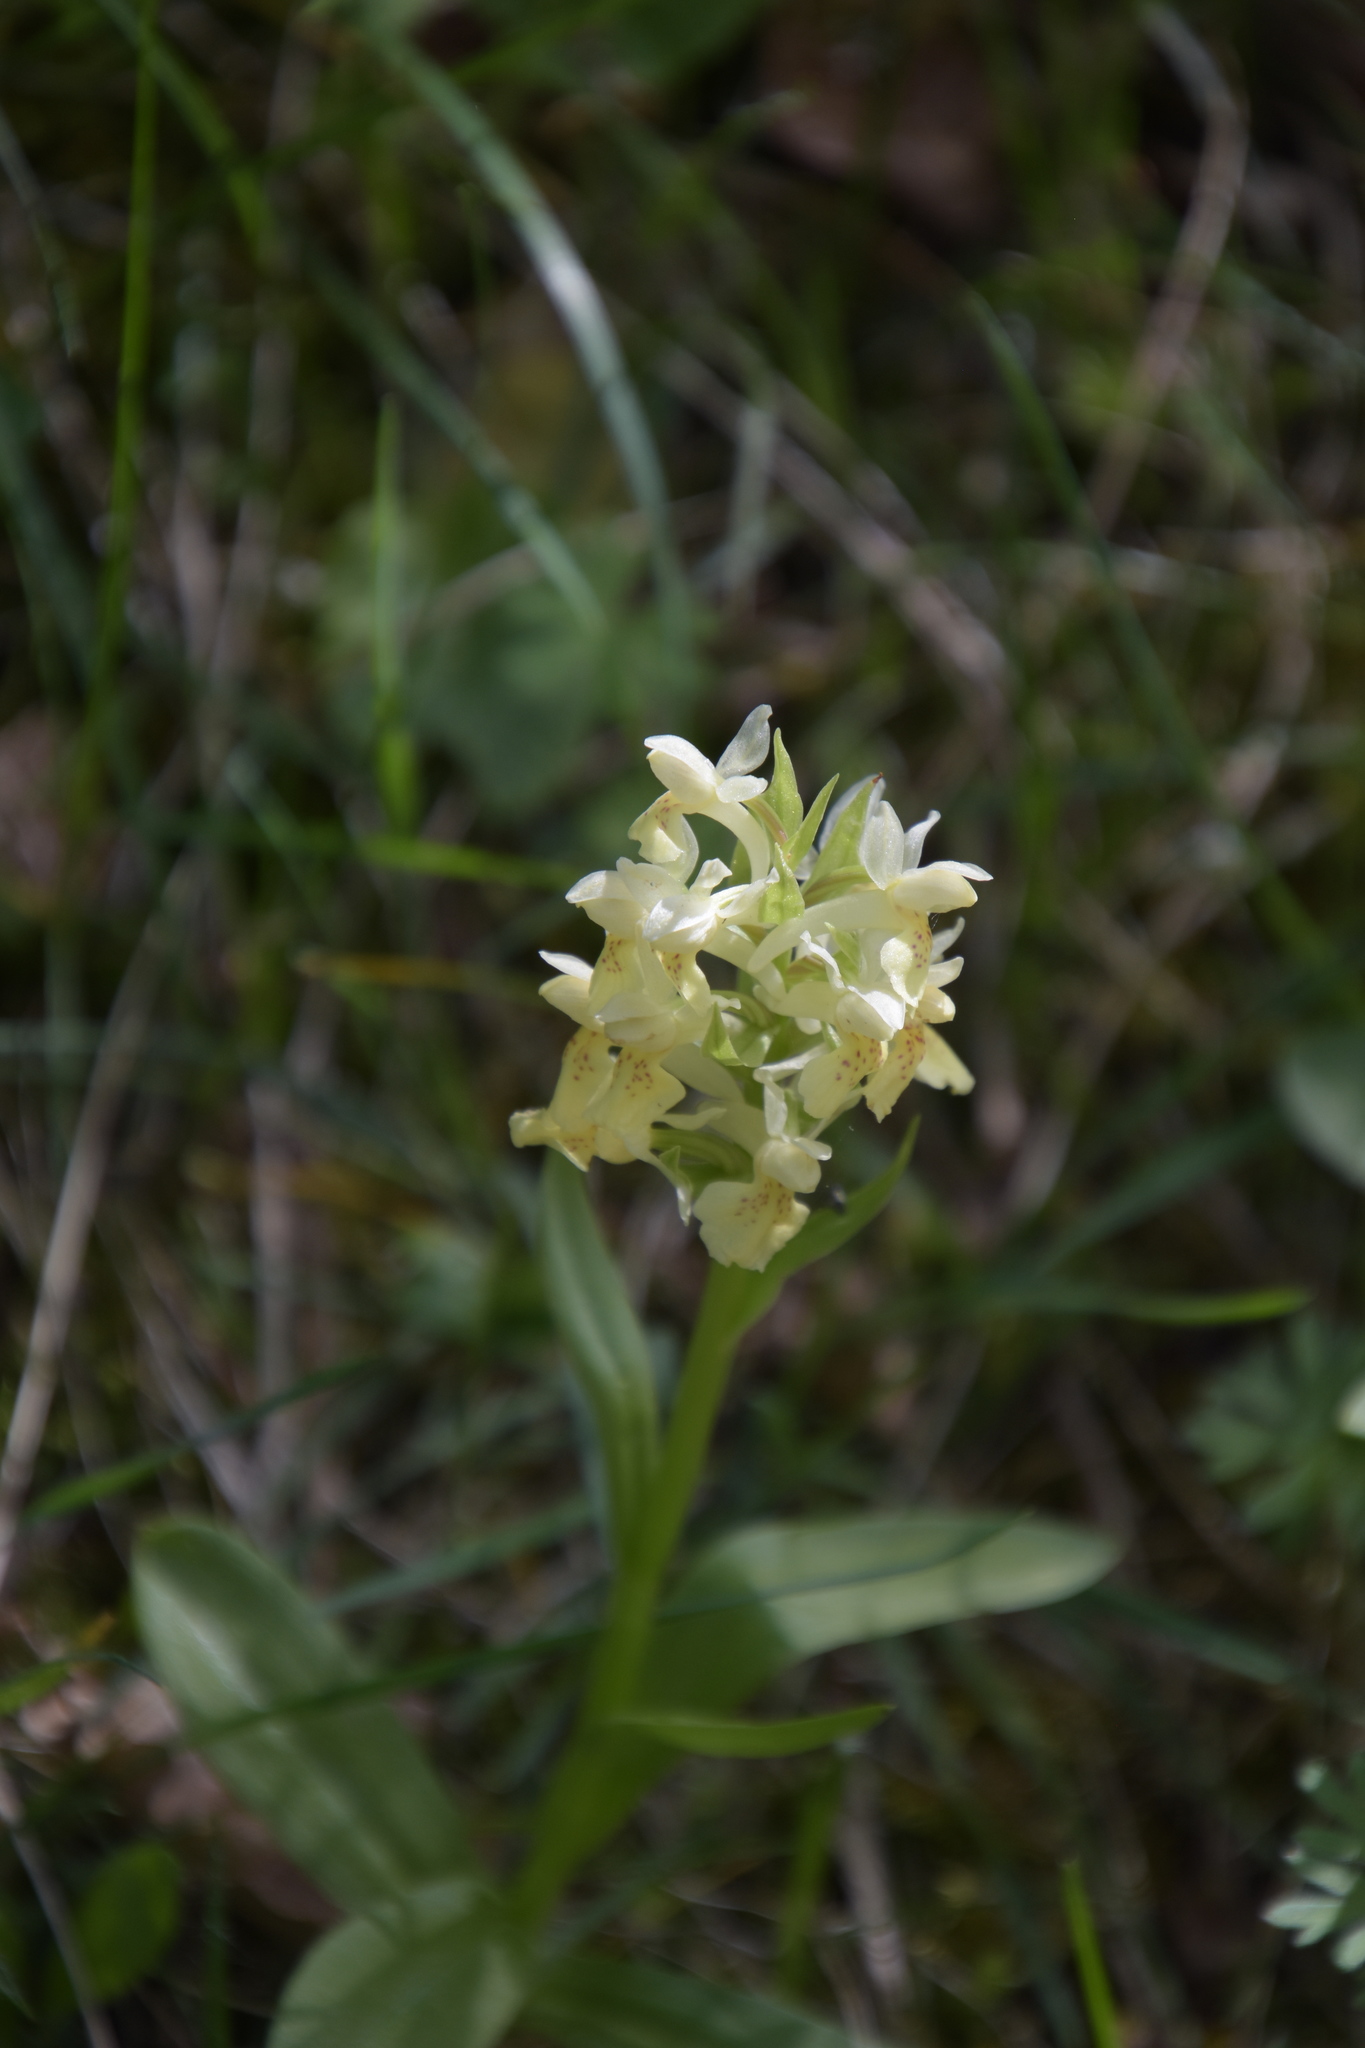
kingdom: Plantae
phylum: Tracheophyta
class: Liliopsida
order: Asparagales
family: Orchidaceae
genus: Dactylorhiza
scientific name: Dactylorhiza sambucina
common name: Elder-flowered orchid
